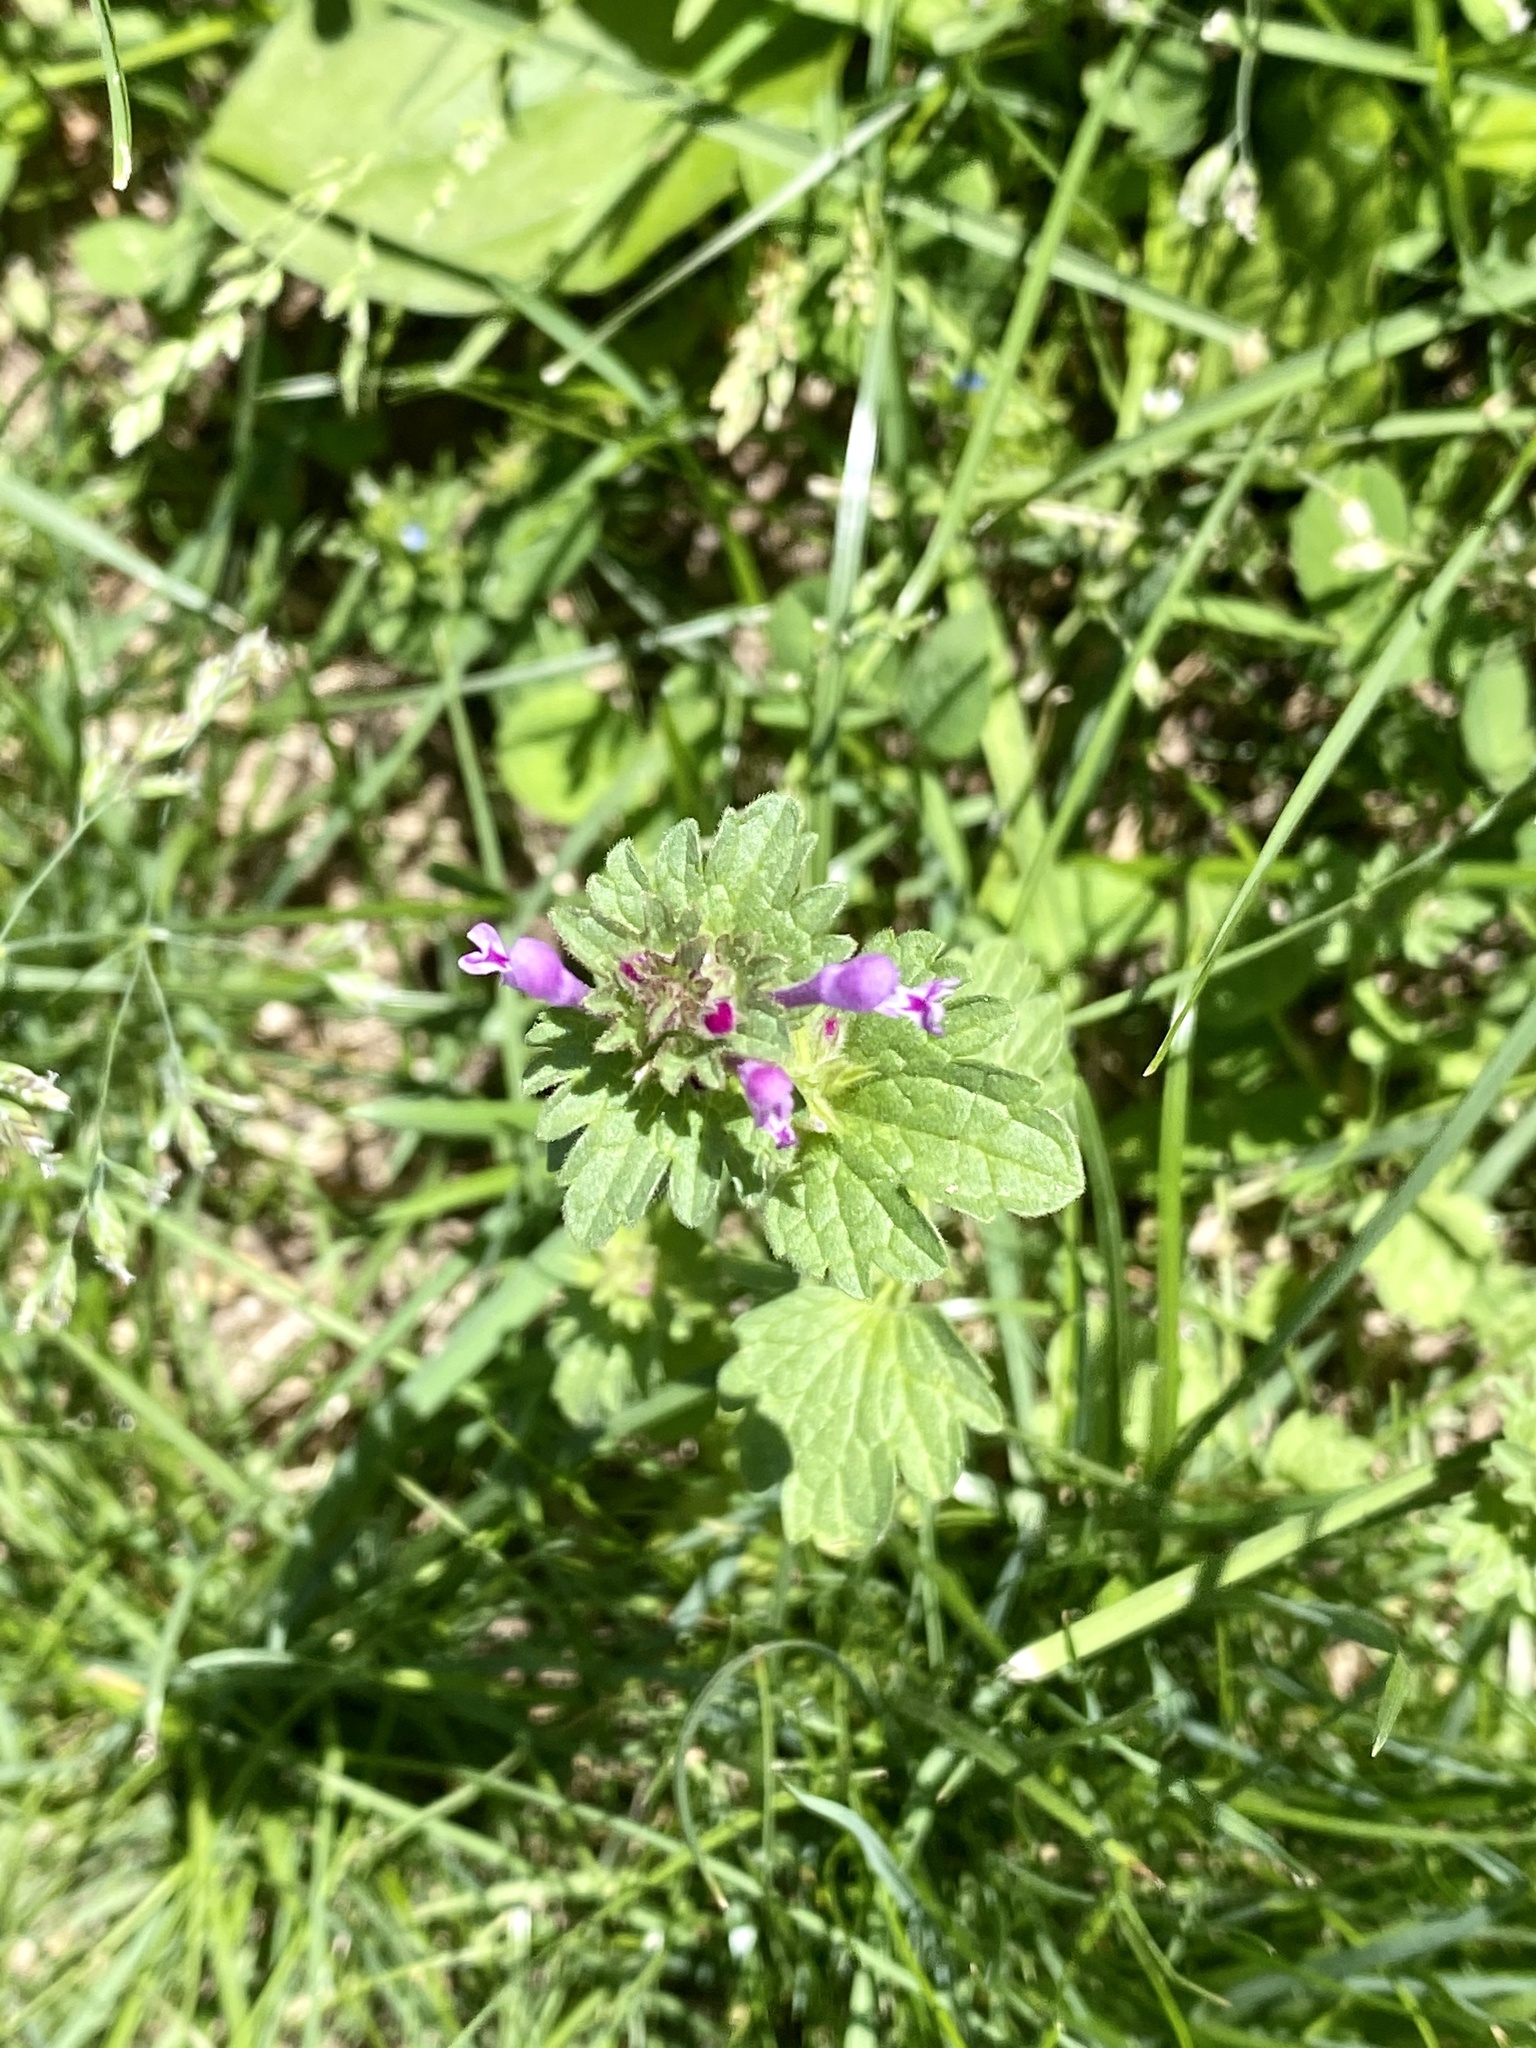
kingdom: Plantae
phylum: Tracheophyta
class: Magnoliopsida
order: Lamiales
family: Lamiaceae
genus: Lamium
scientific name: Lamium amplexicaule
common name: Henbit dead-nettle
